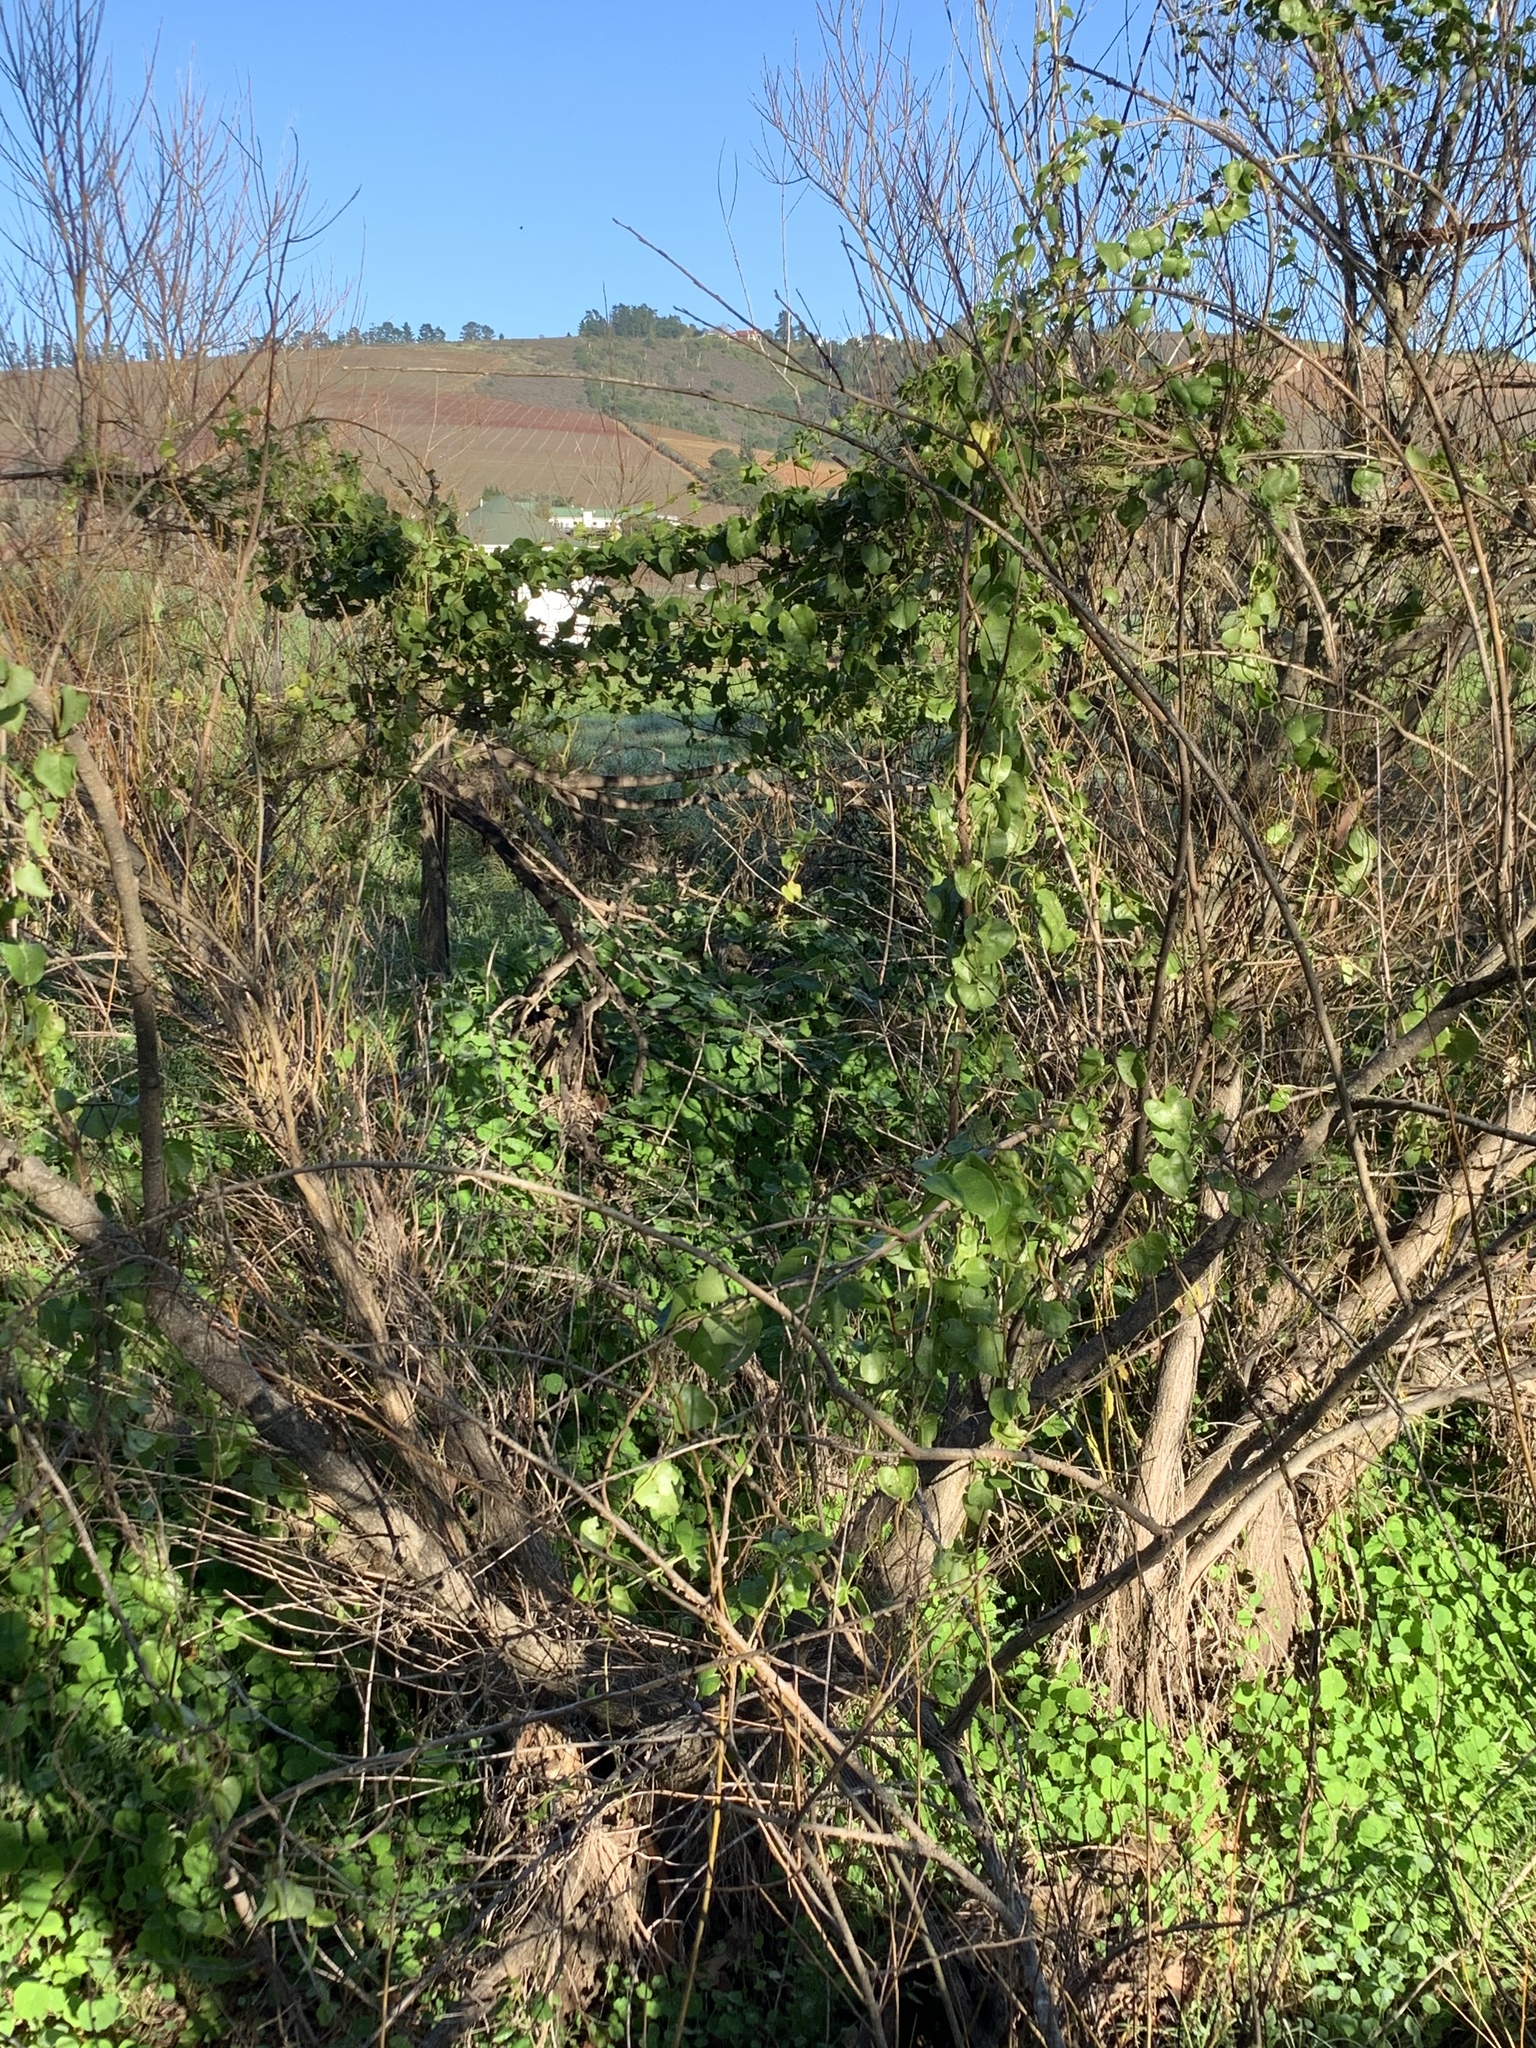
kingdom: Plantae
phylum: Tracheophyta
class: Magnoliopsida
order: Caryophyllales
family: Basellaceae
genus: Anredera
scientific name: Anredera cordifolia
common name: Heartleaf madeiravine
